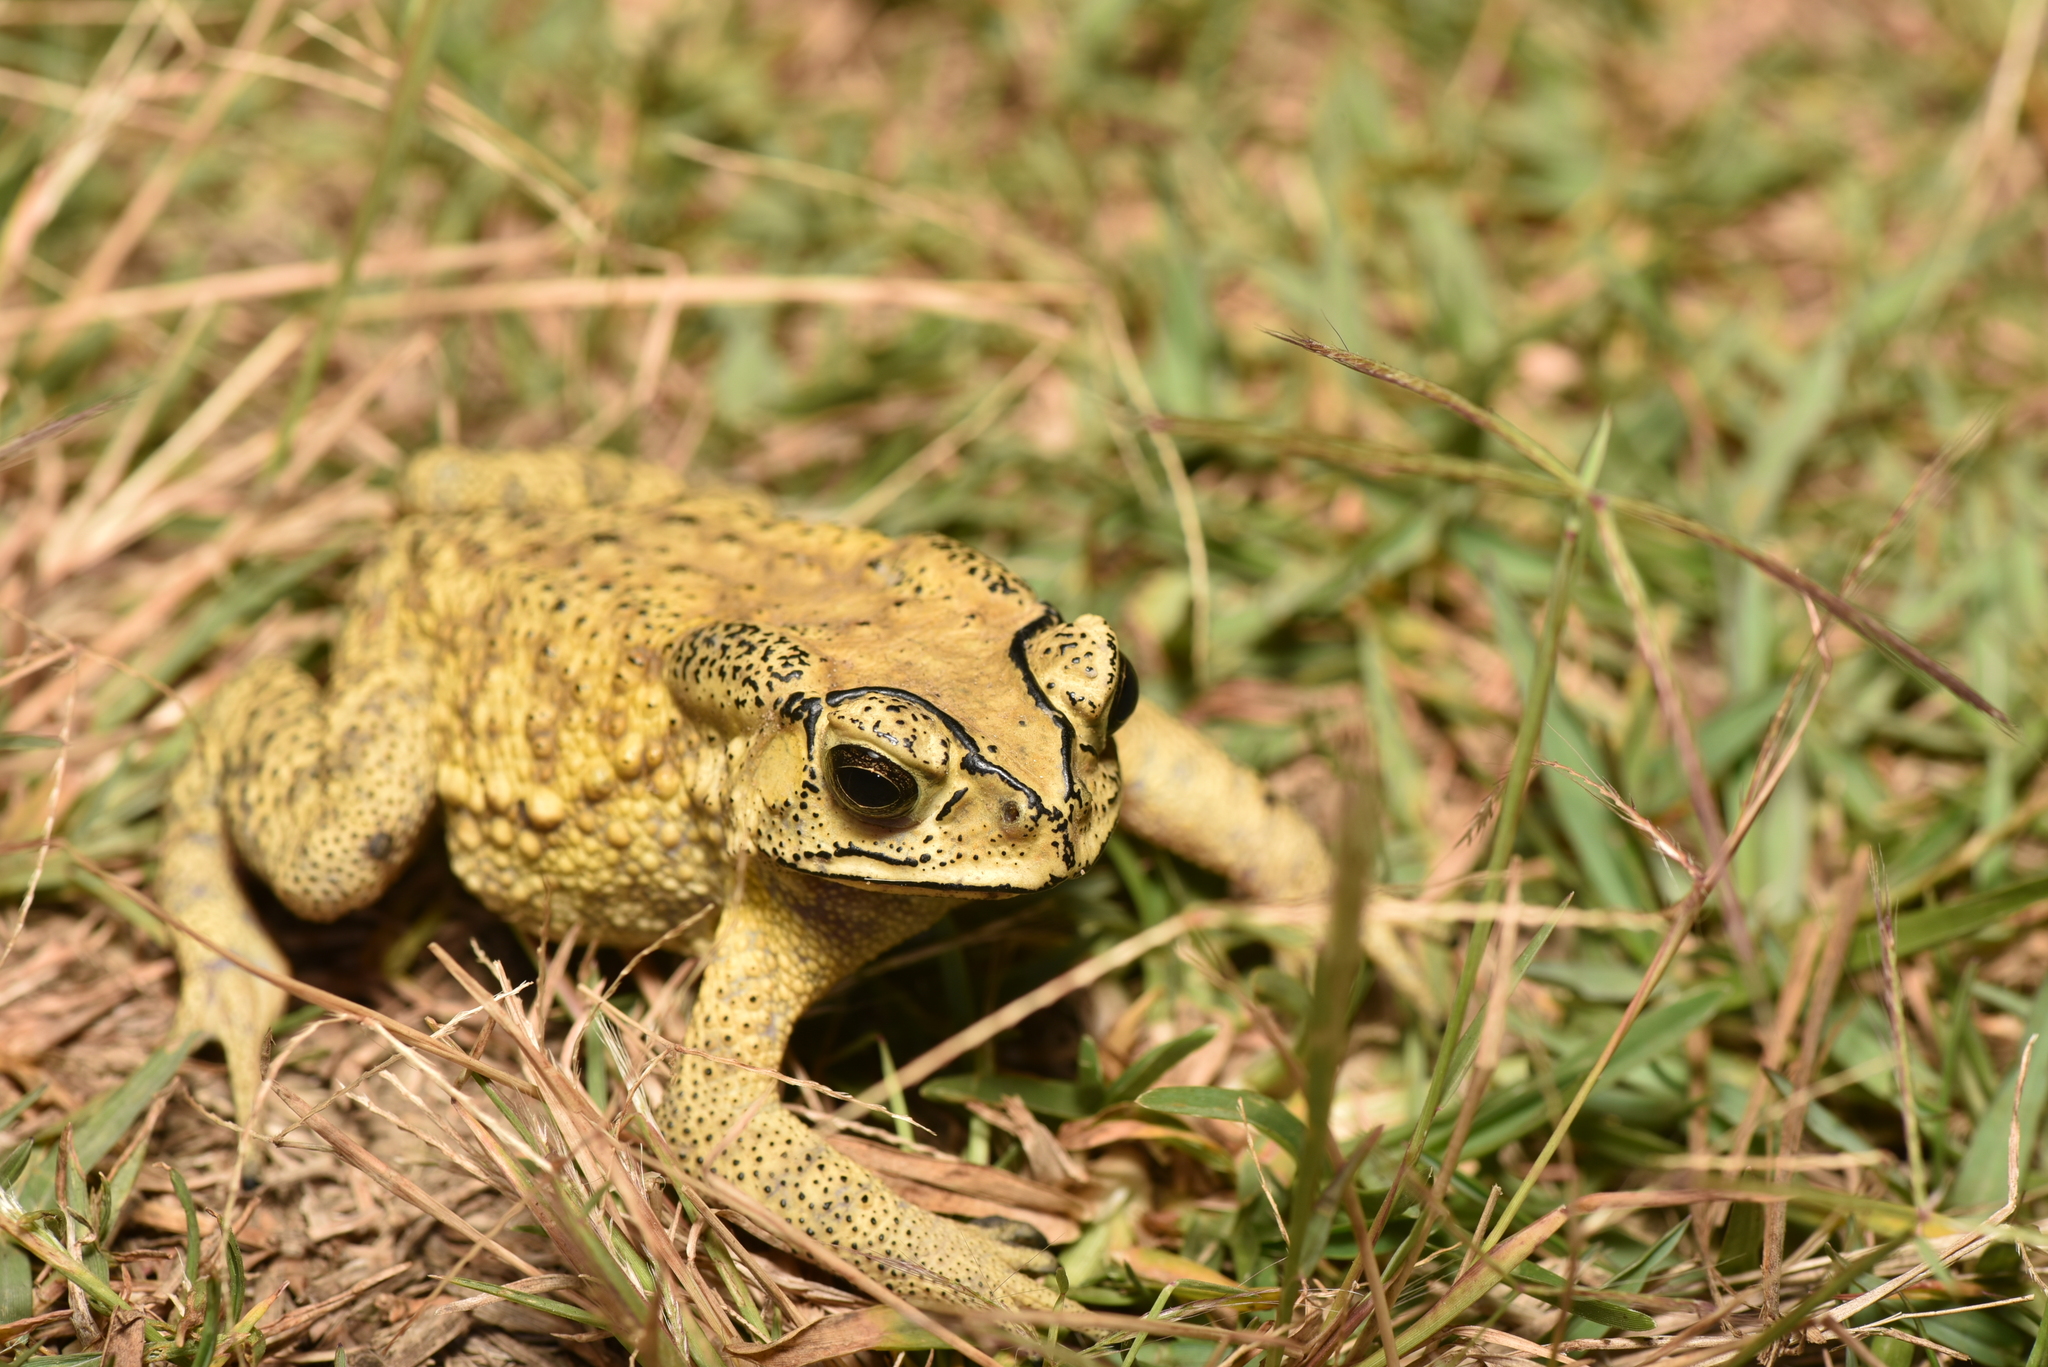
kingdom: Animalia
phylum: Chordata
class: Amphibia
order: Anura
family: Bufonidae
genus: Duttaphrynus
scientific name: Duttaphrynus melanostictus
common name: Common sunda toad
